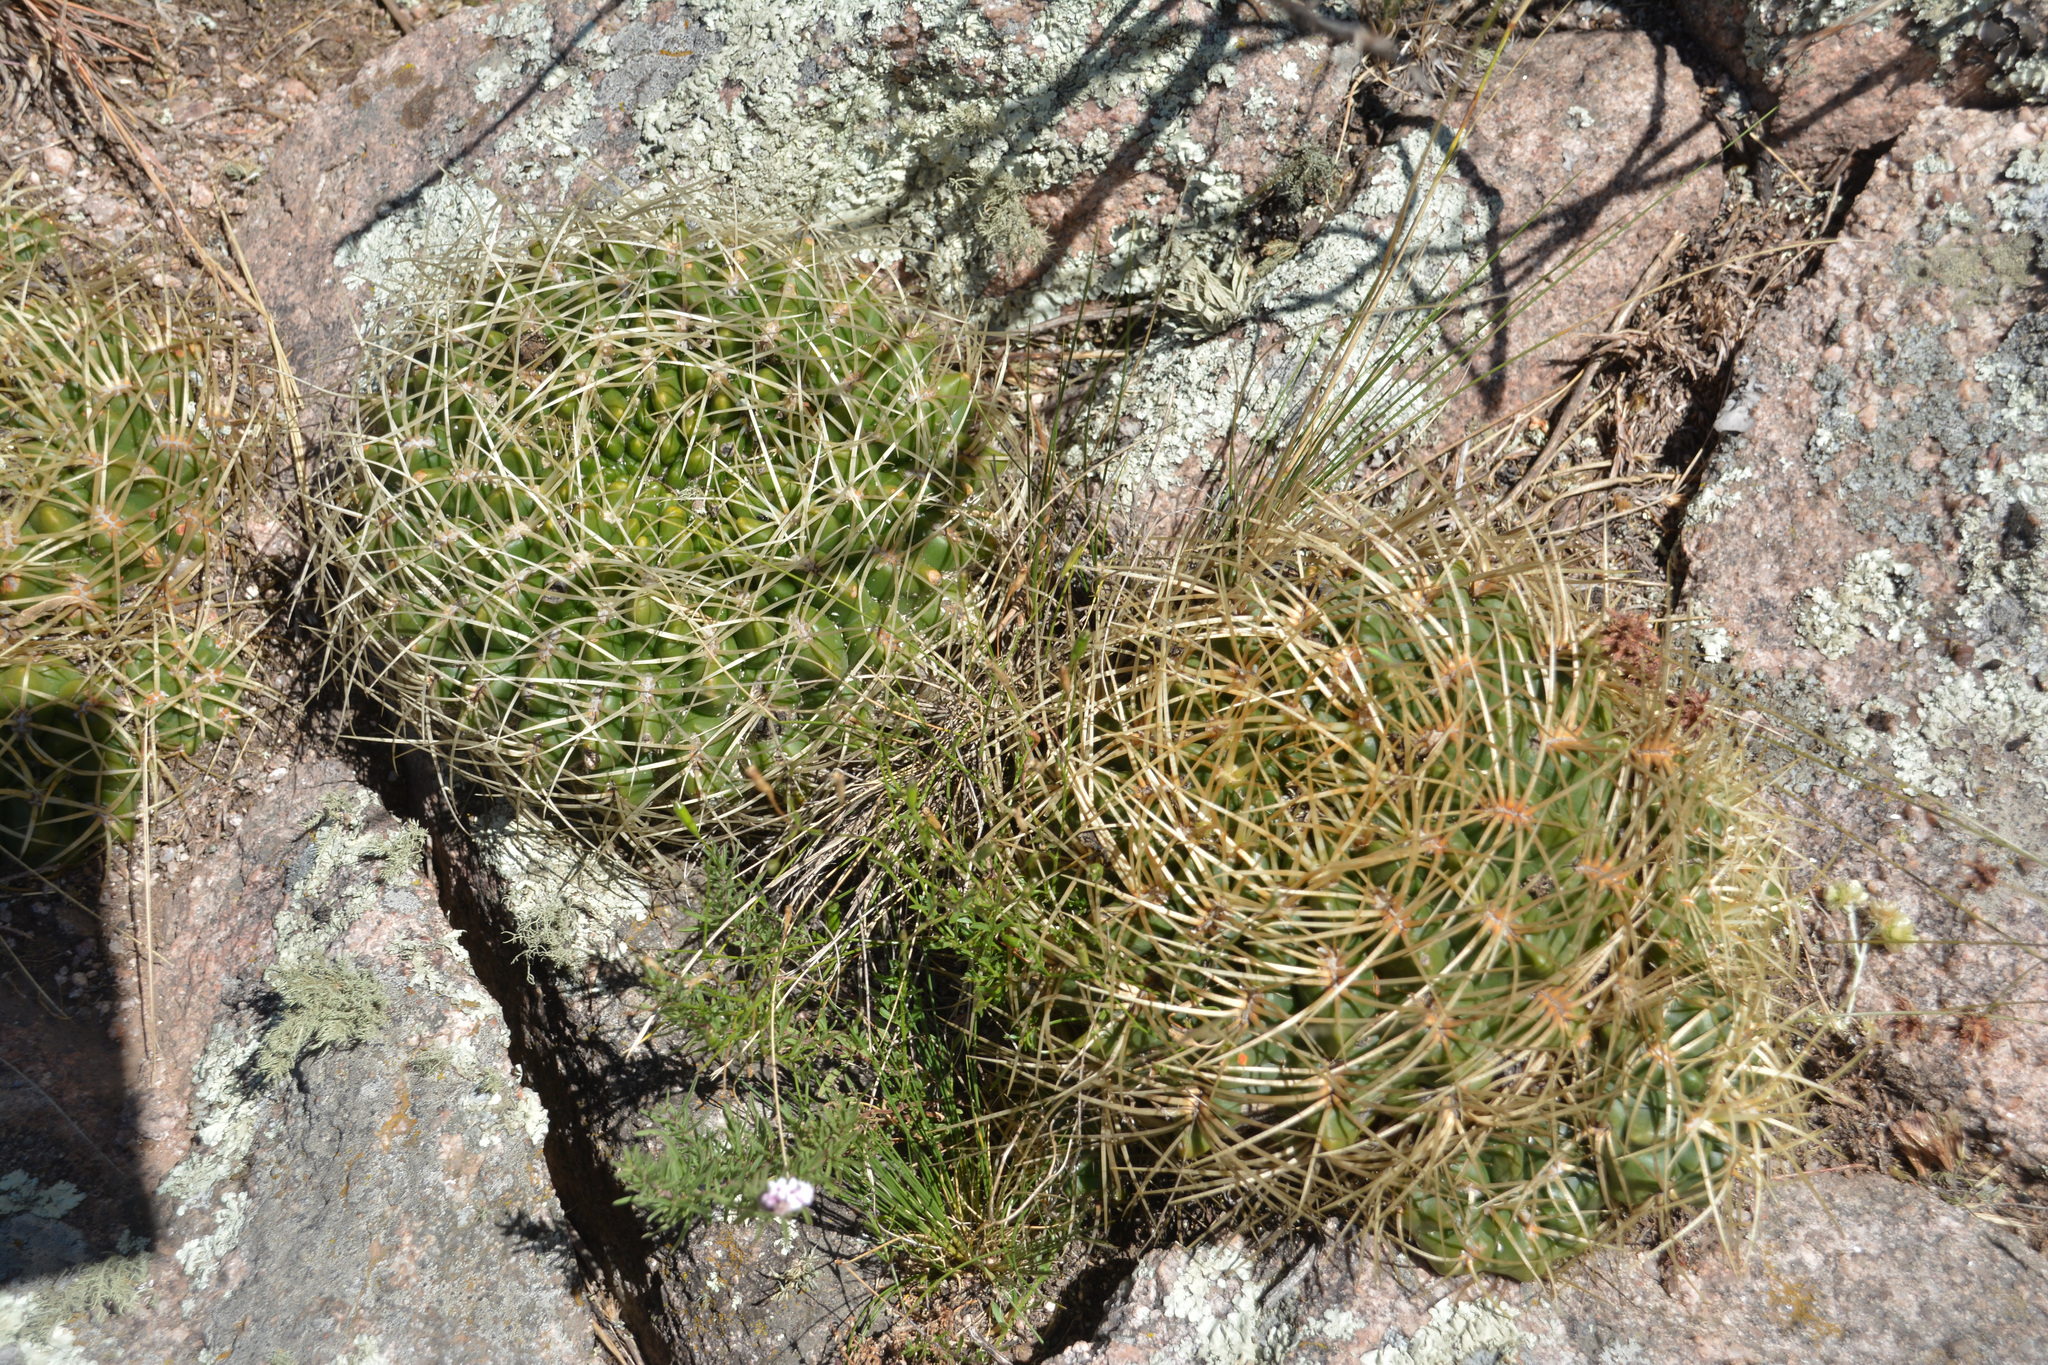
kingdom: Plantae
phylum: Tracheophyta
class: Magnoliopsida
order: Caryophyllales
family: Cactaceae
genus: Gymnocalycium
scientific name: Gymnocalycium monvillei
